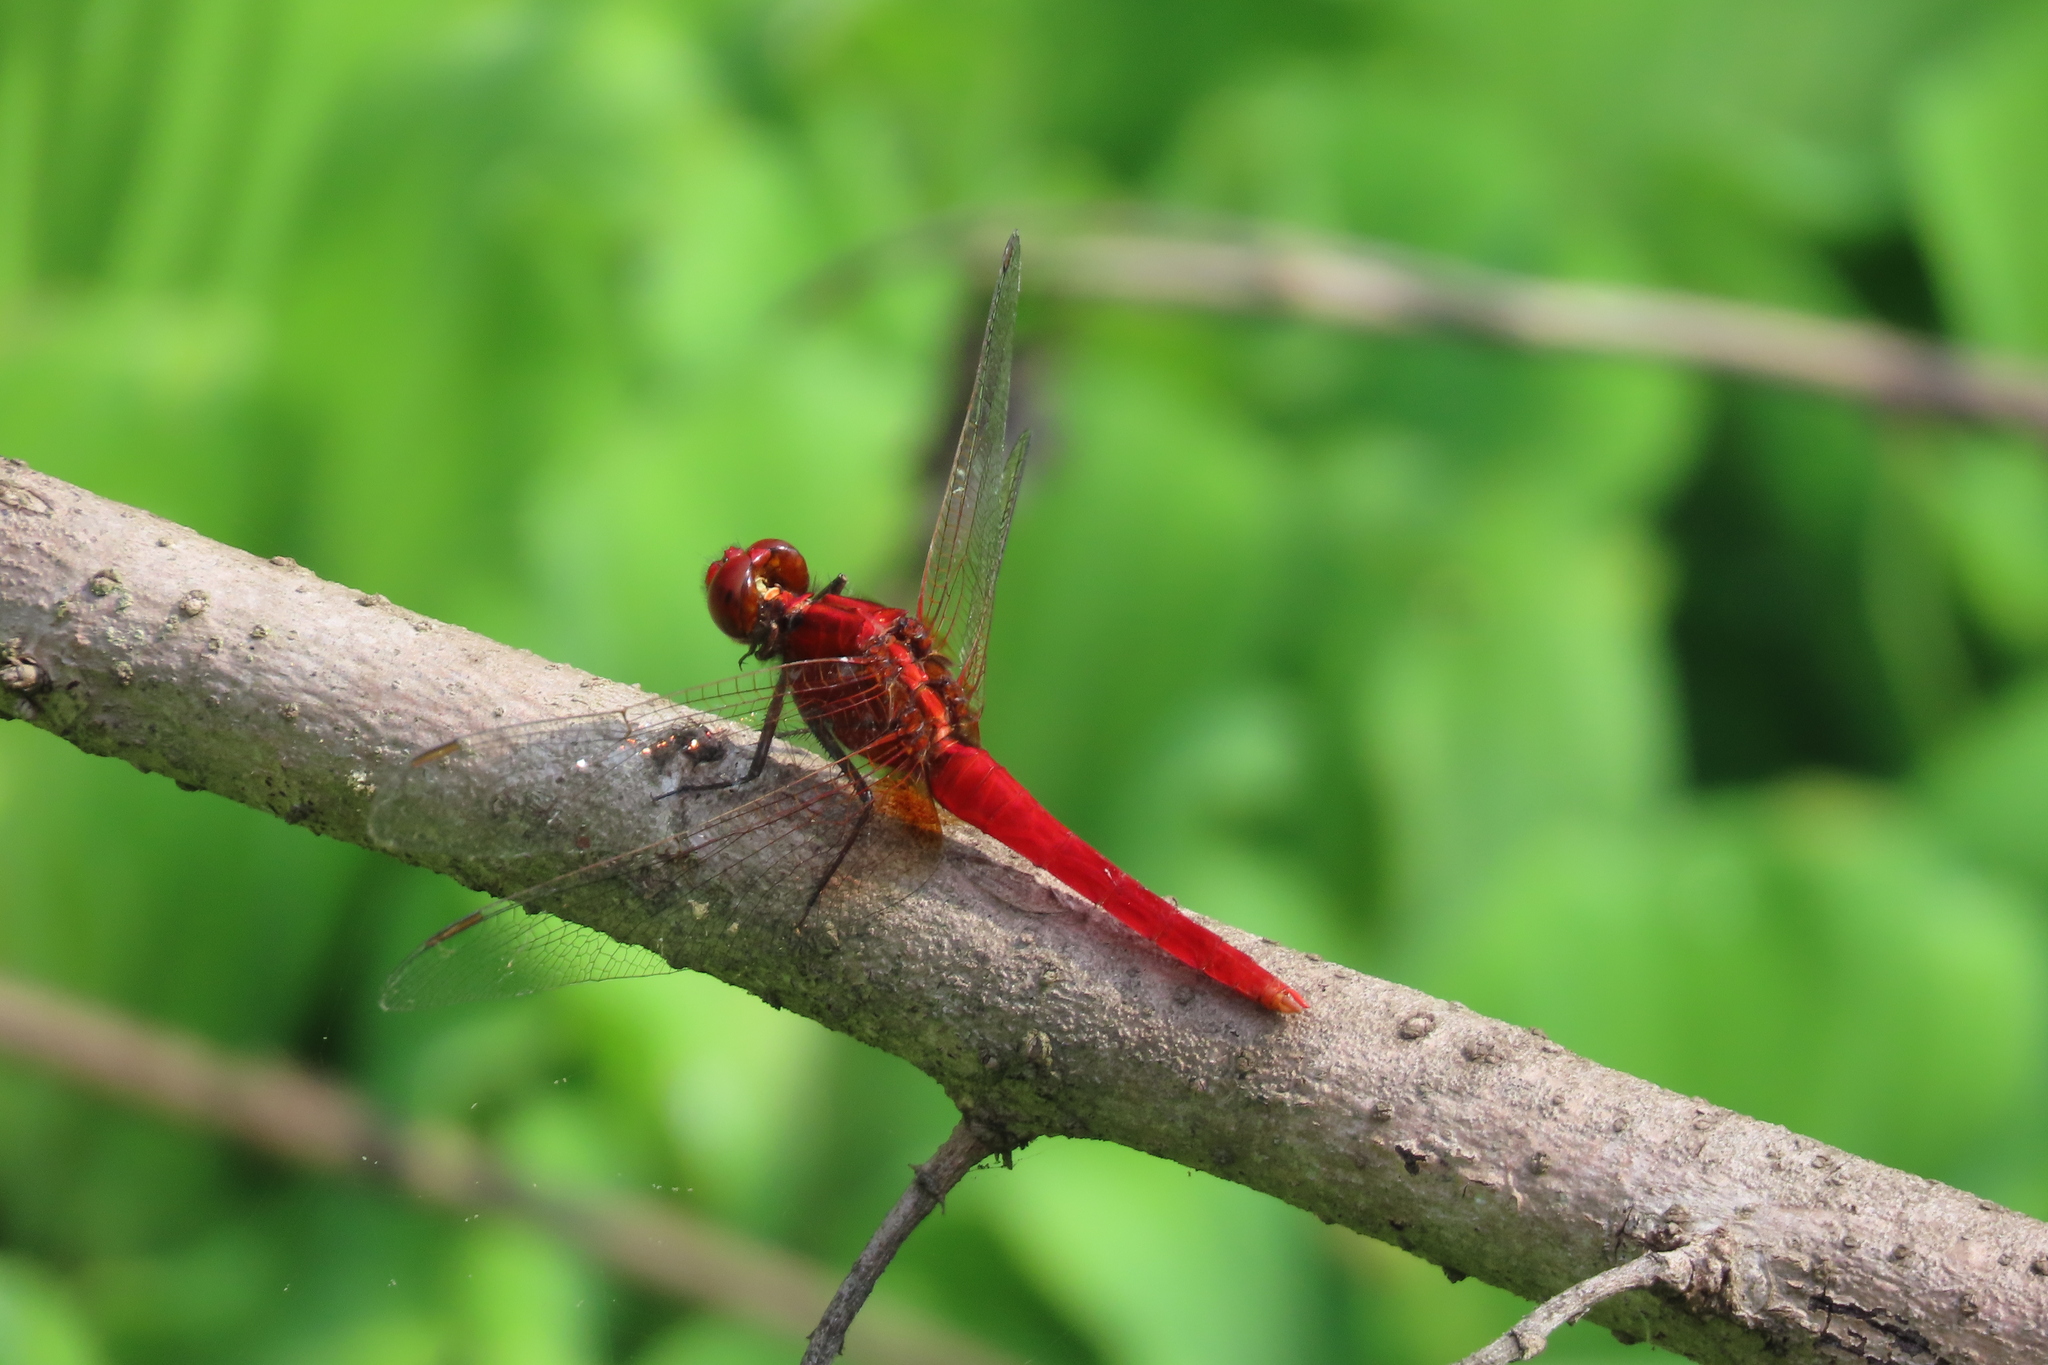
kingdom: Animalia
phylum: Arthropoda
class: Insecta
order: Odonata
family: Libellulidae
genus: Rhodothemis
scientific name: Rhodothemis rufa
